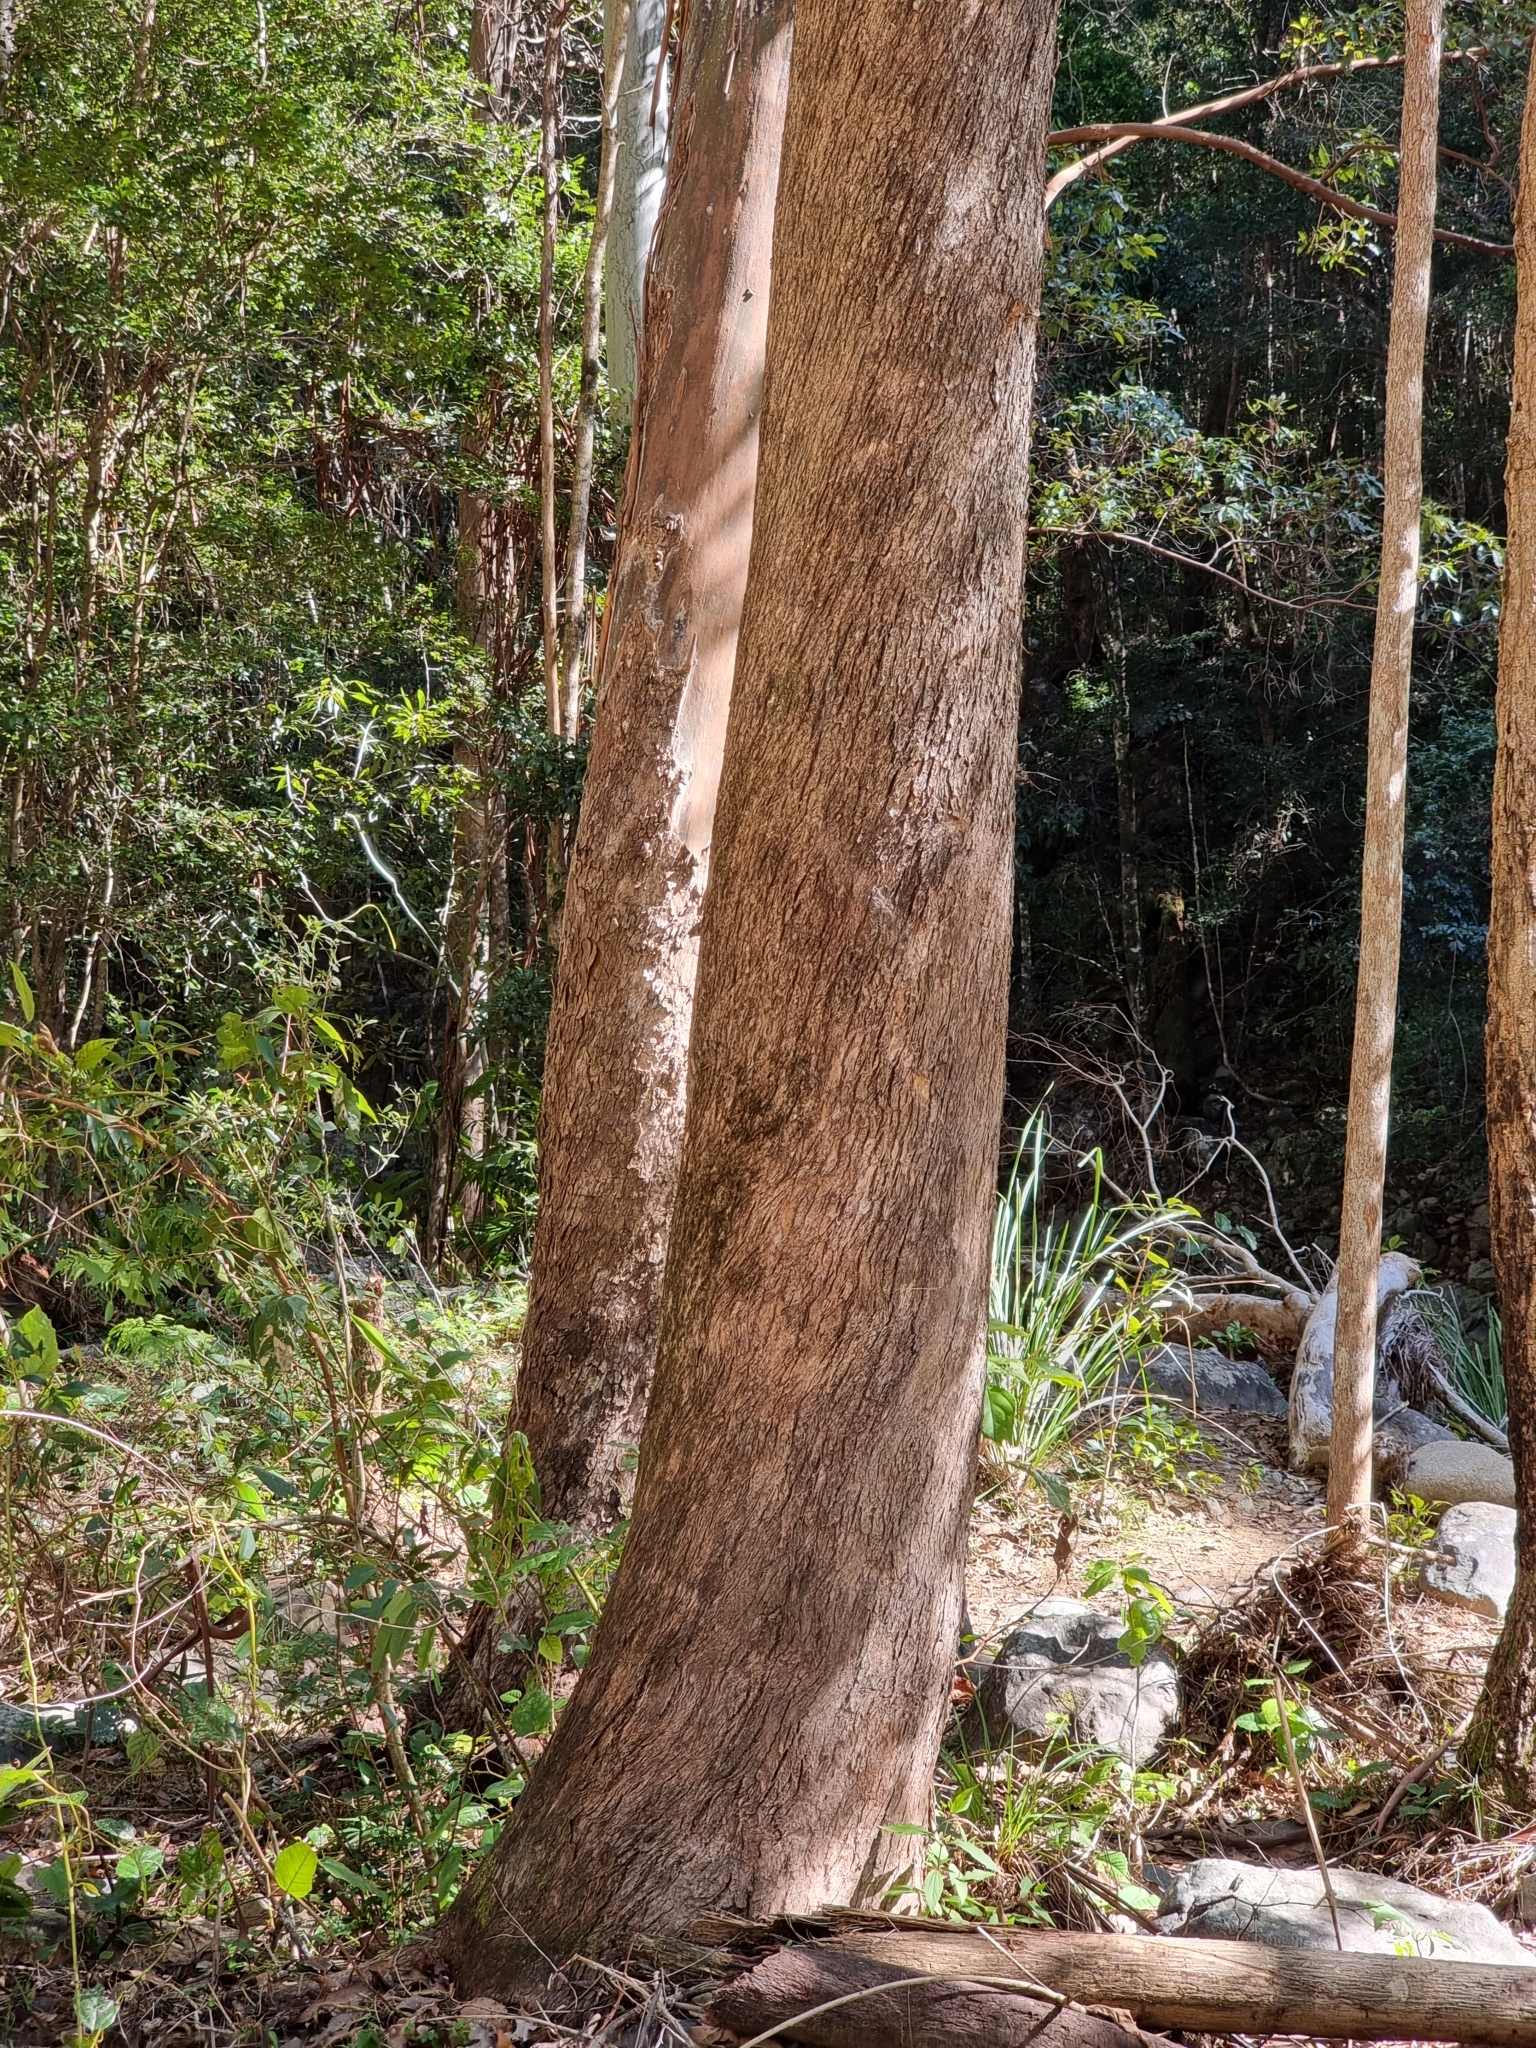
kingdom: Plantae
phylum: Tracheophyta
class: Magnoliopsida
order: Myrtales
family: Myrtaceae
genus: Lophostemon
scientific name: Lophostemon confertus
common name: Brisbane box
